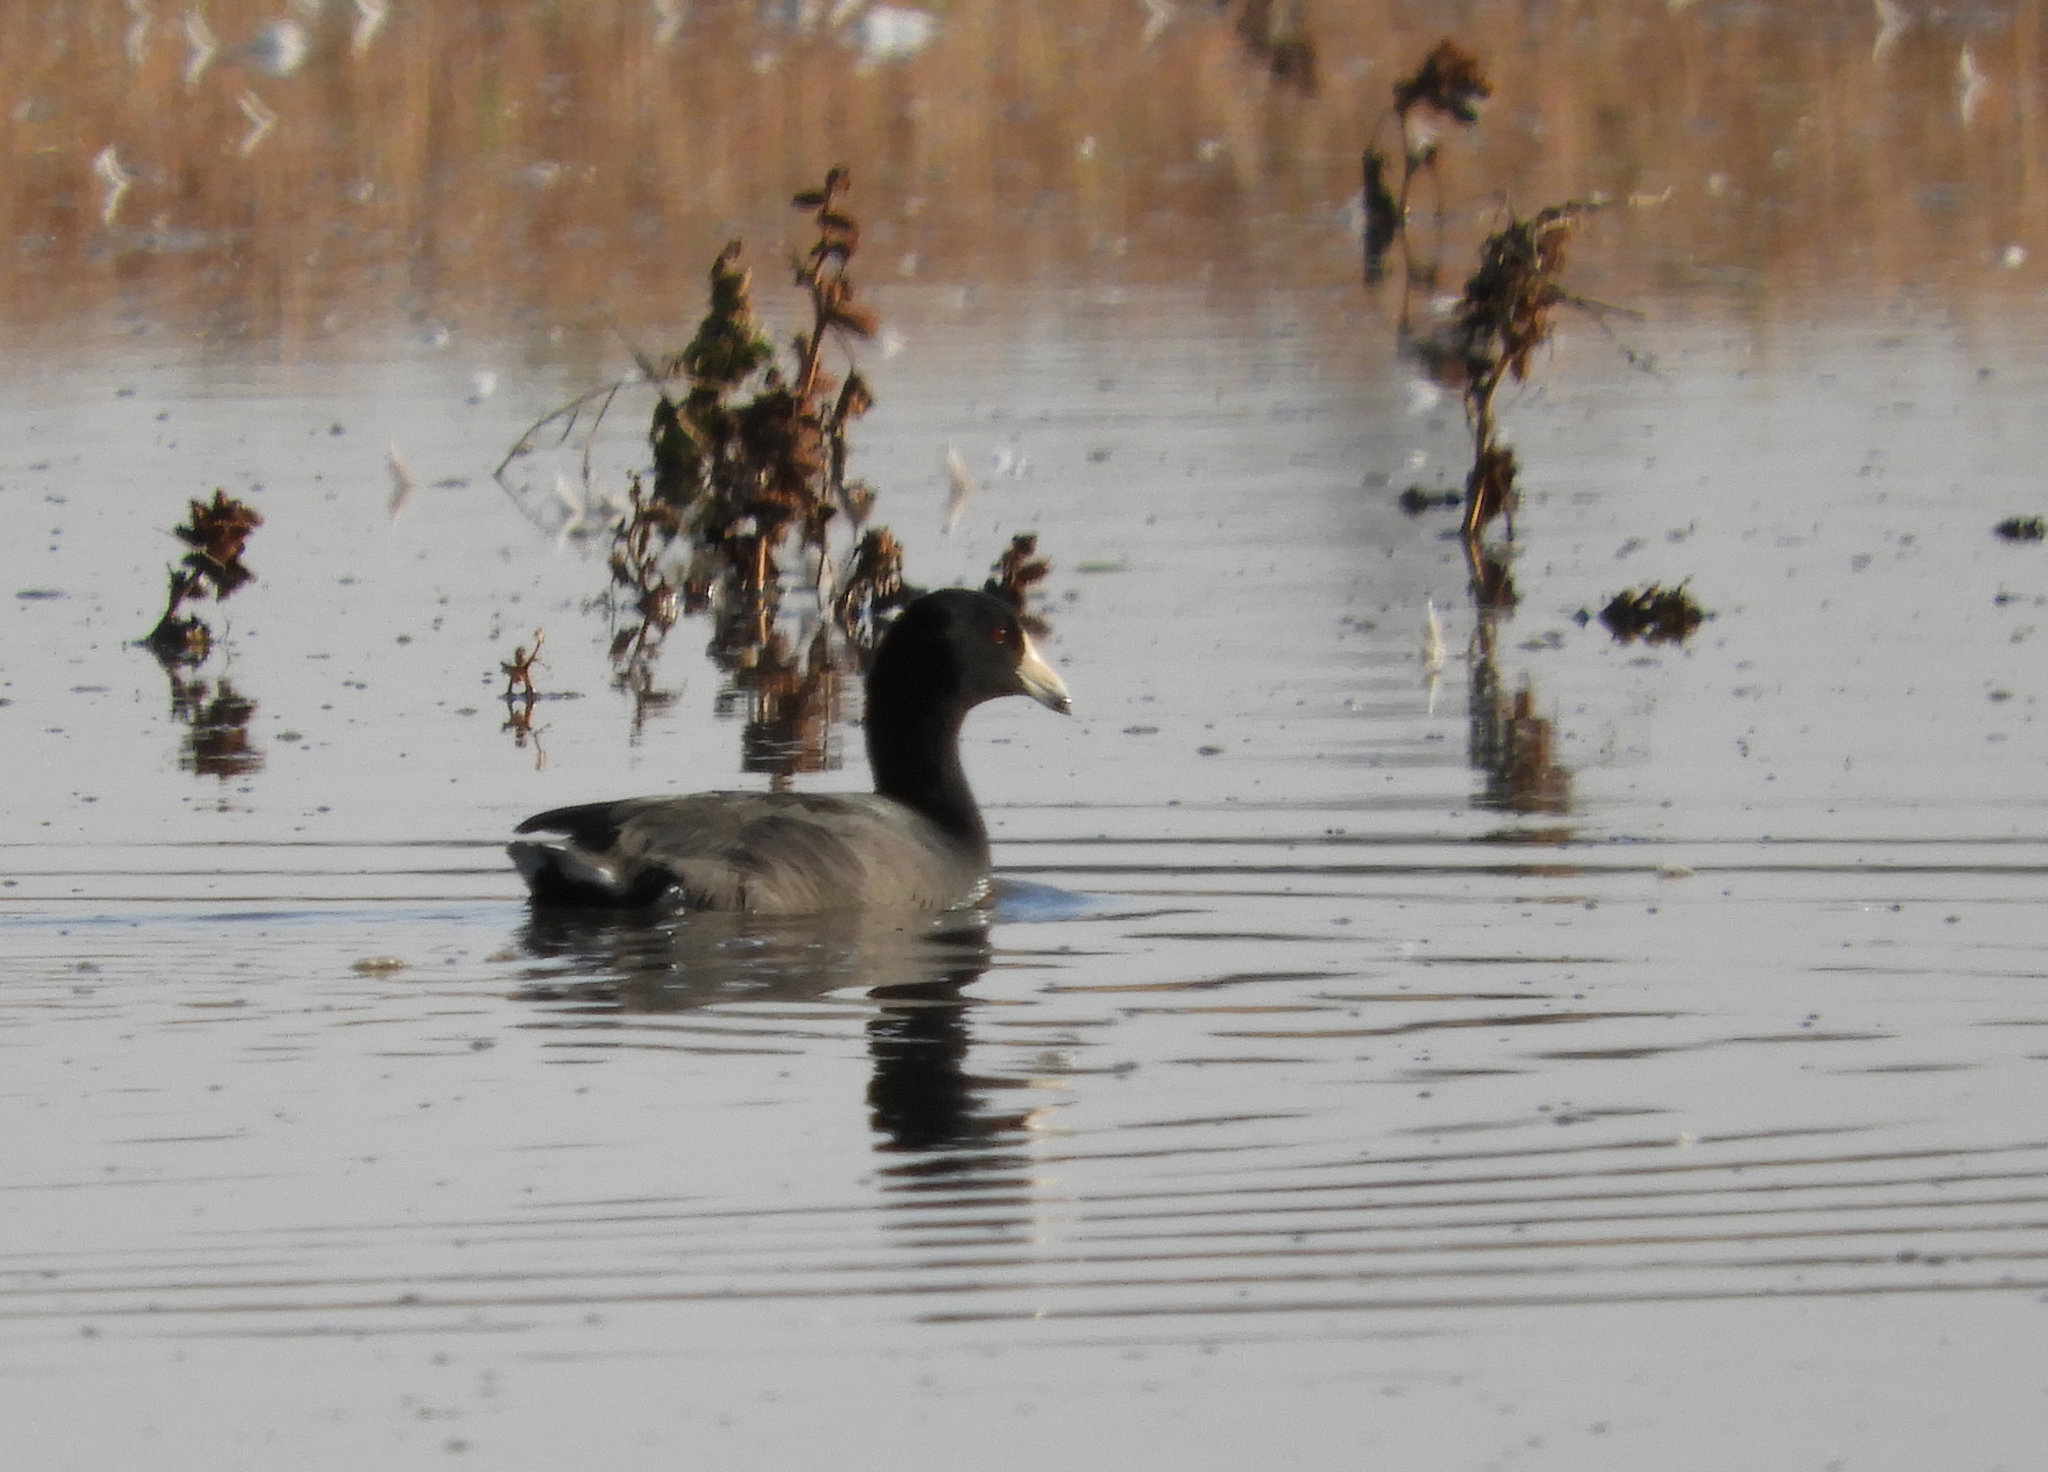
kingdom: Animalia
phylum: Chordata
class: Aves
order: Gruiformes
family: Rallidae
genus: Fulica
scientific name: Fulica americana
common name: American coot
